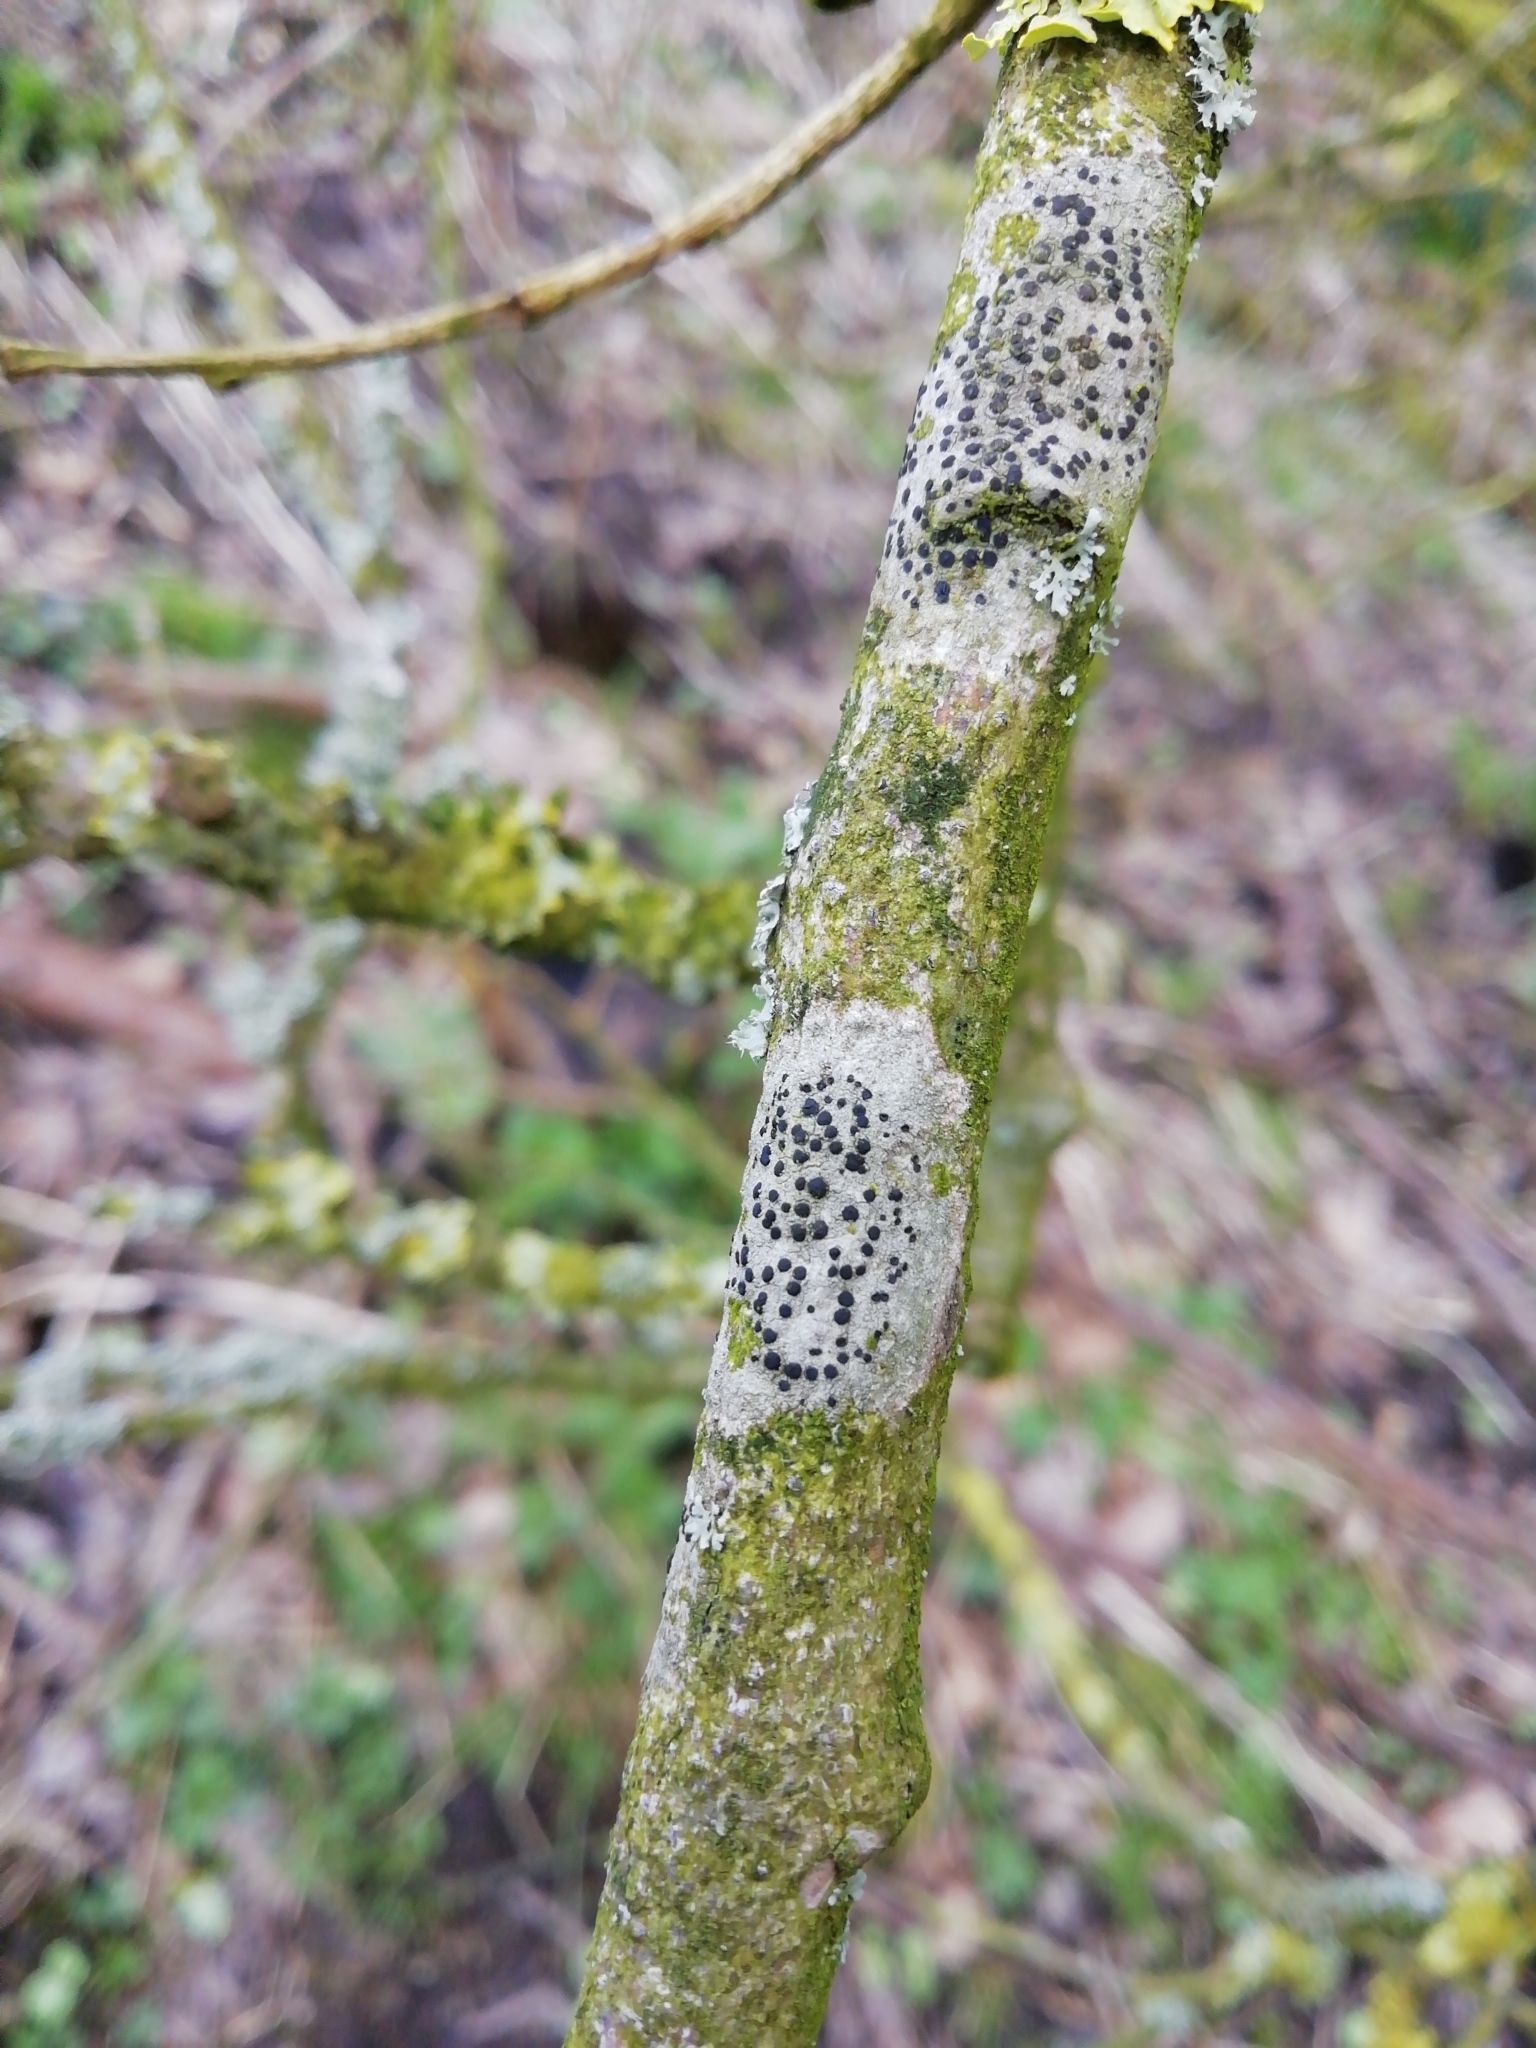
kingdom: Fungi
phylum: Ascomycota
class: Lecanoromycetes
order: Lecanorales
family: Lecanoraceae
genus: Lecidella
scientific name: Lecidella elaeochroma
